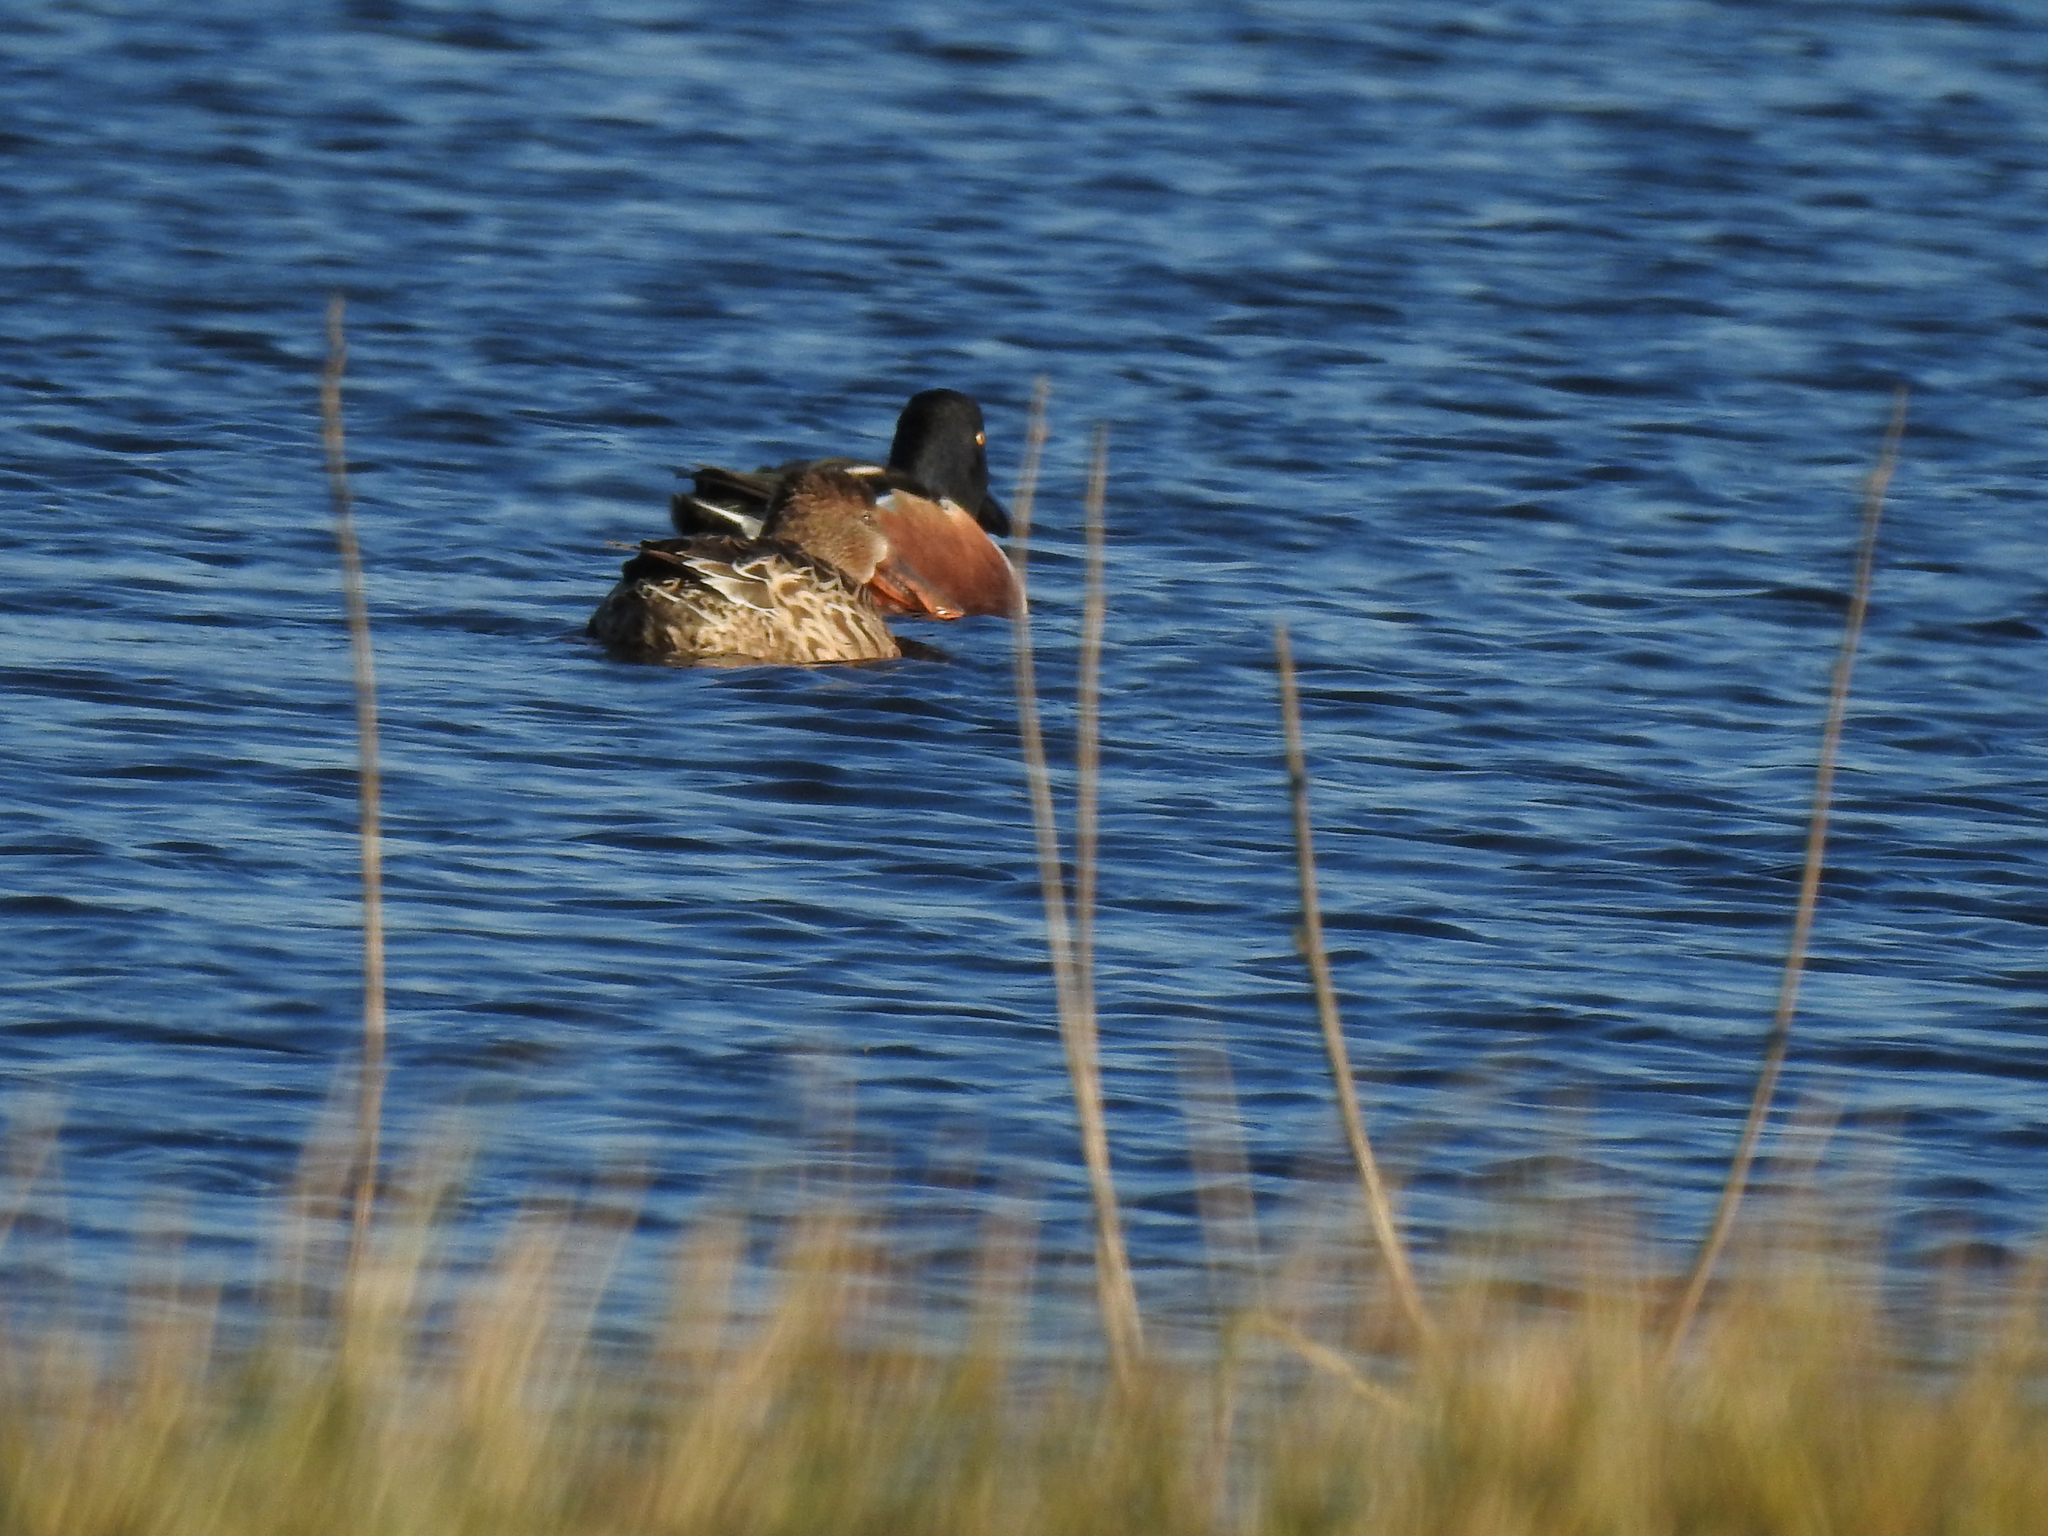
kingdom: Animalia
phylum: Chordata
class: Aves
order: Anseriformes
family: Anatidae
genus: Spatula
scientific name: Spatula clypeata
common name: Northern shoveler
